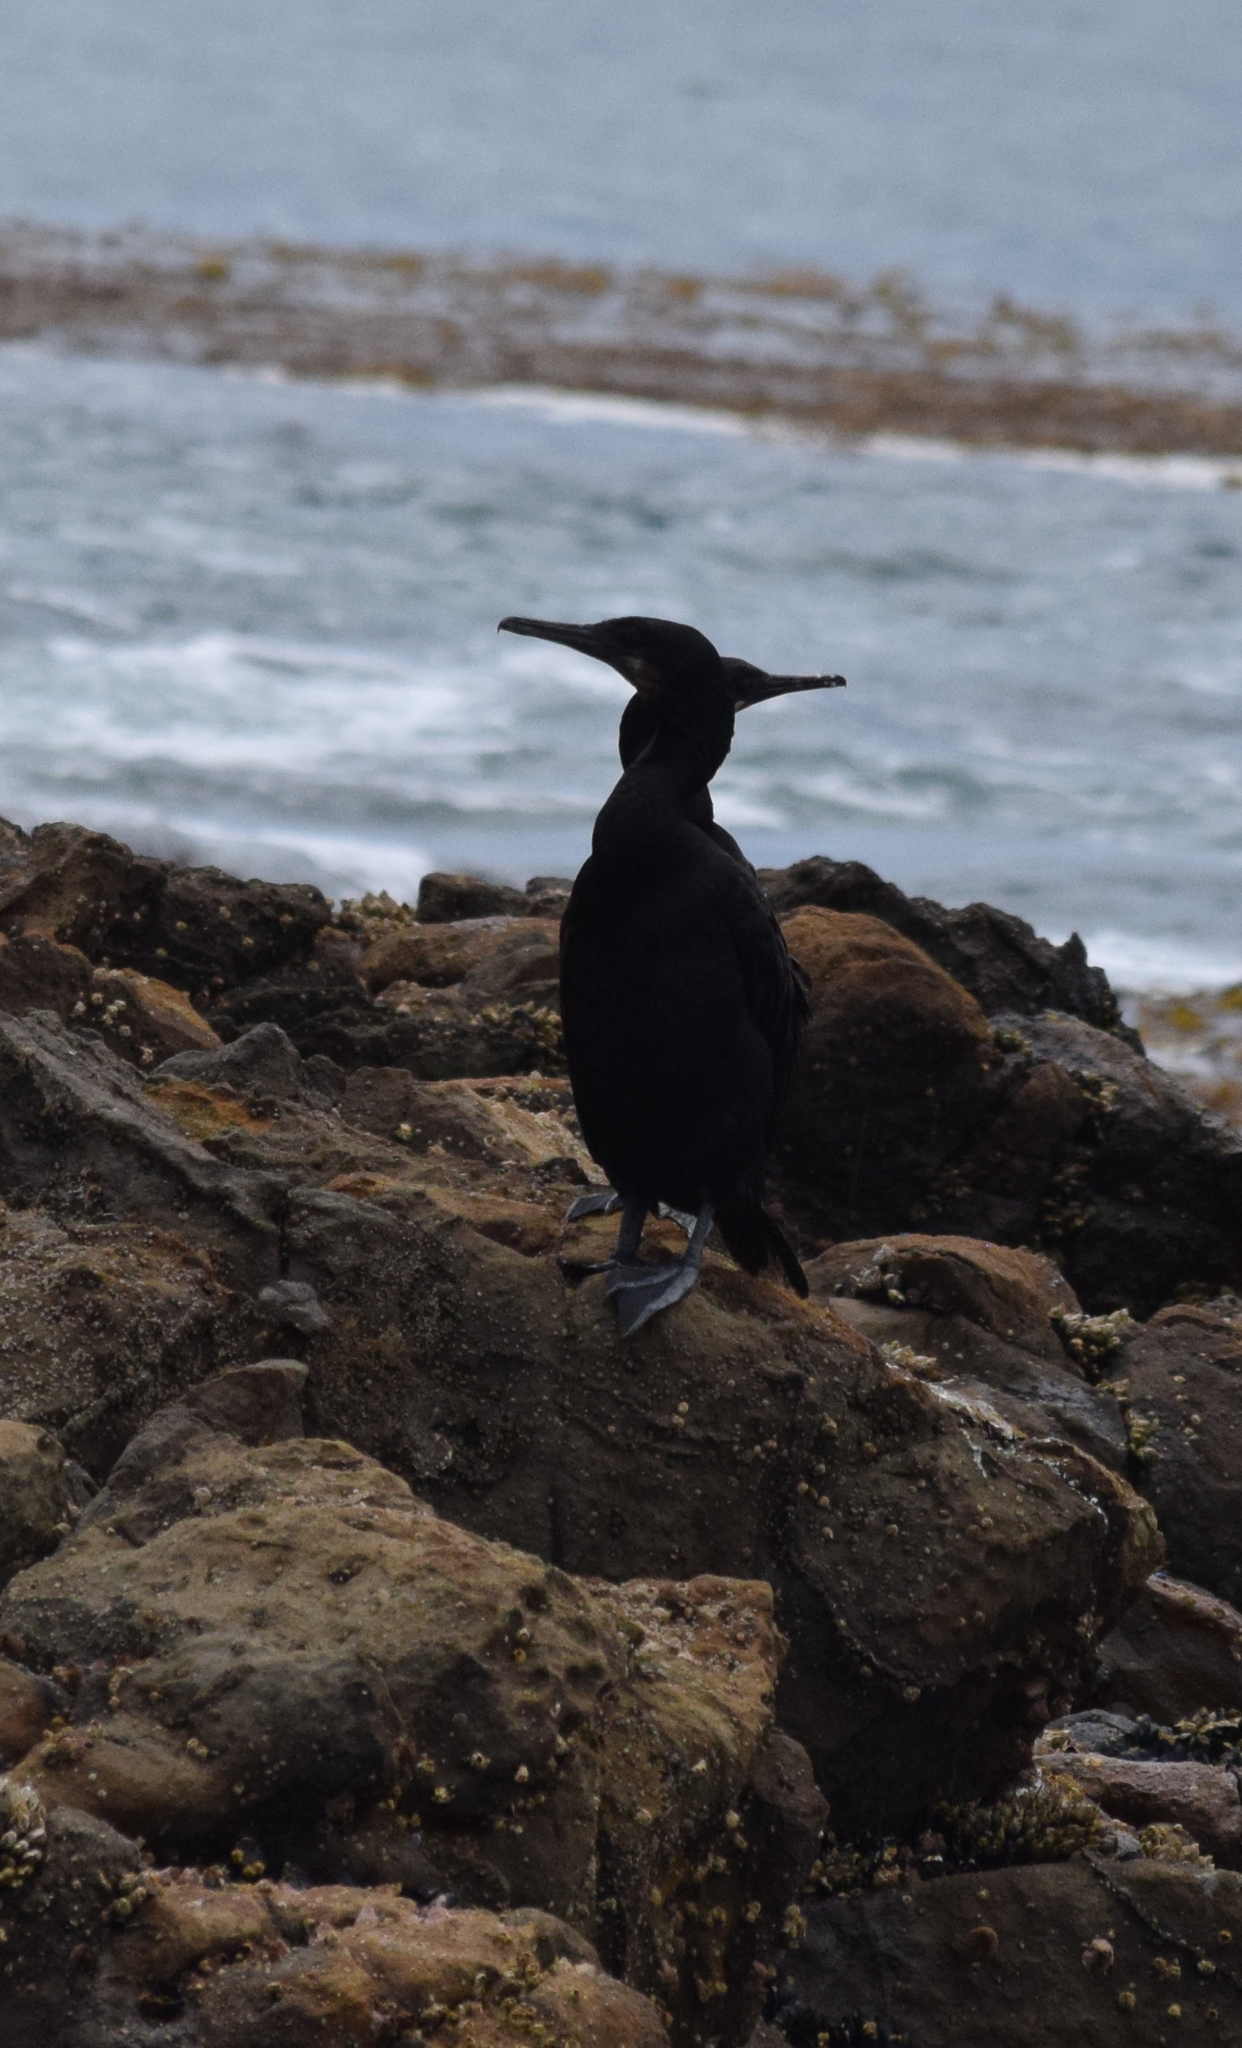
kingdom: Animalia
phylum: Chordata
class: Aves
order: Suliformes
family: Phalacrocoracidae
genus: Urile
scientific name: Urile penicillatus
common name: Brandt's cormorant
